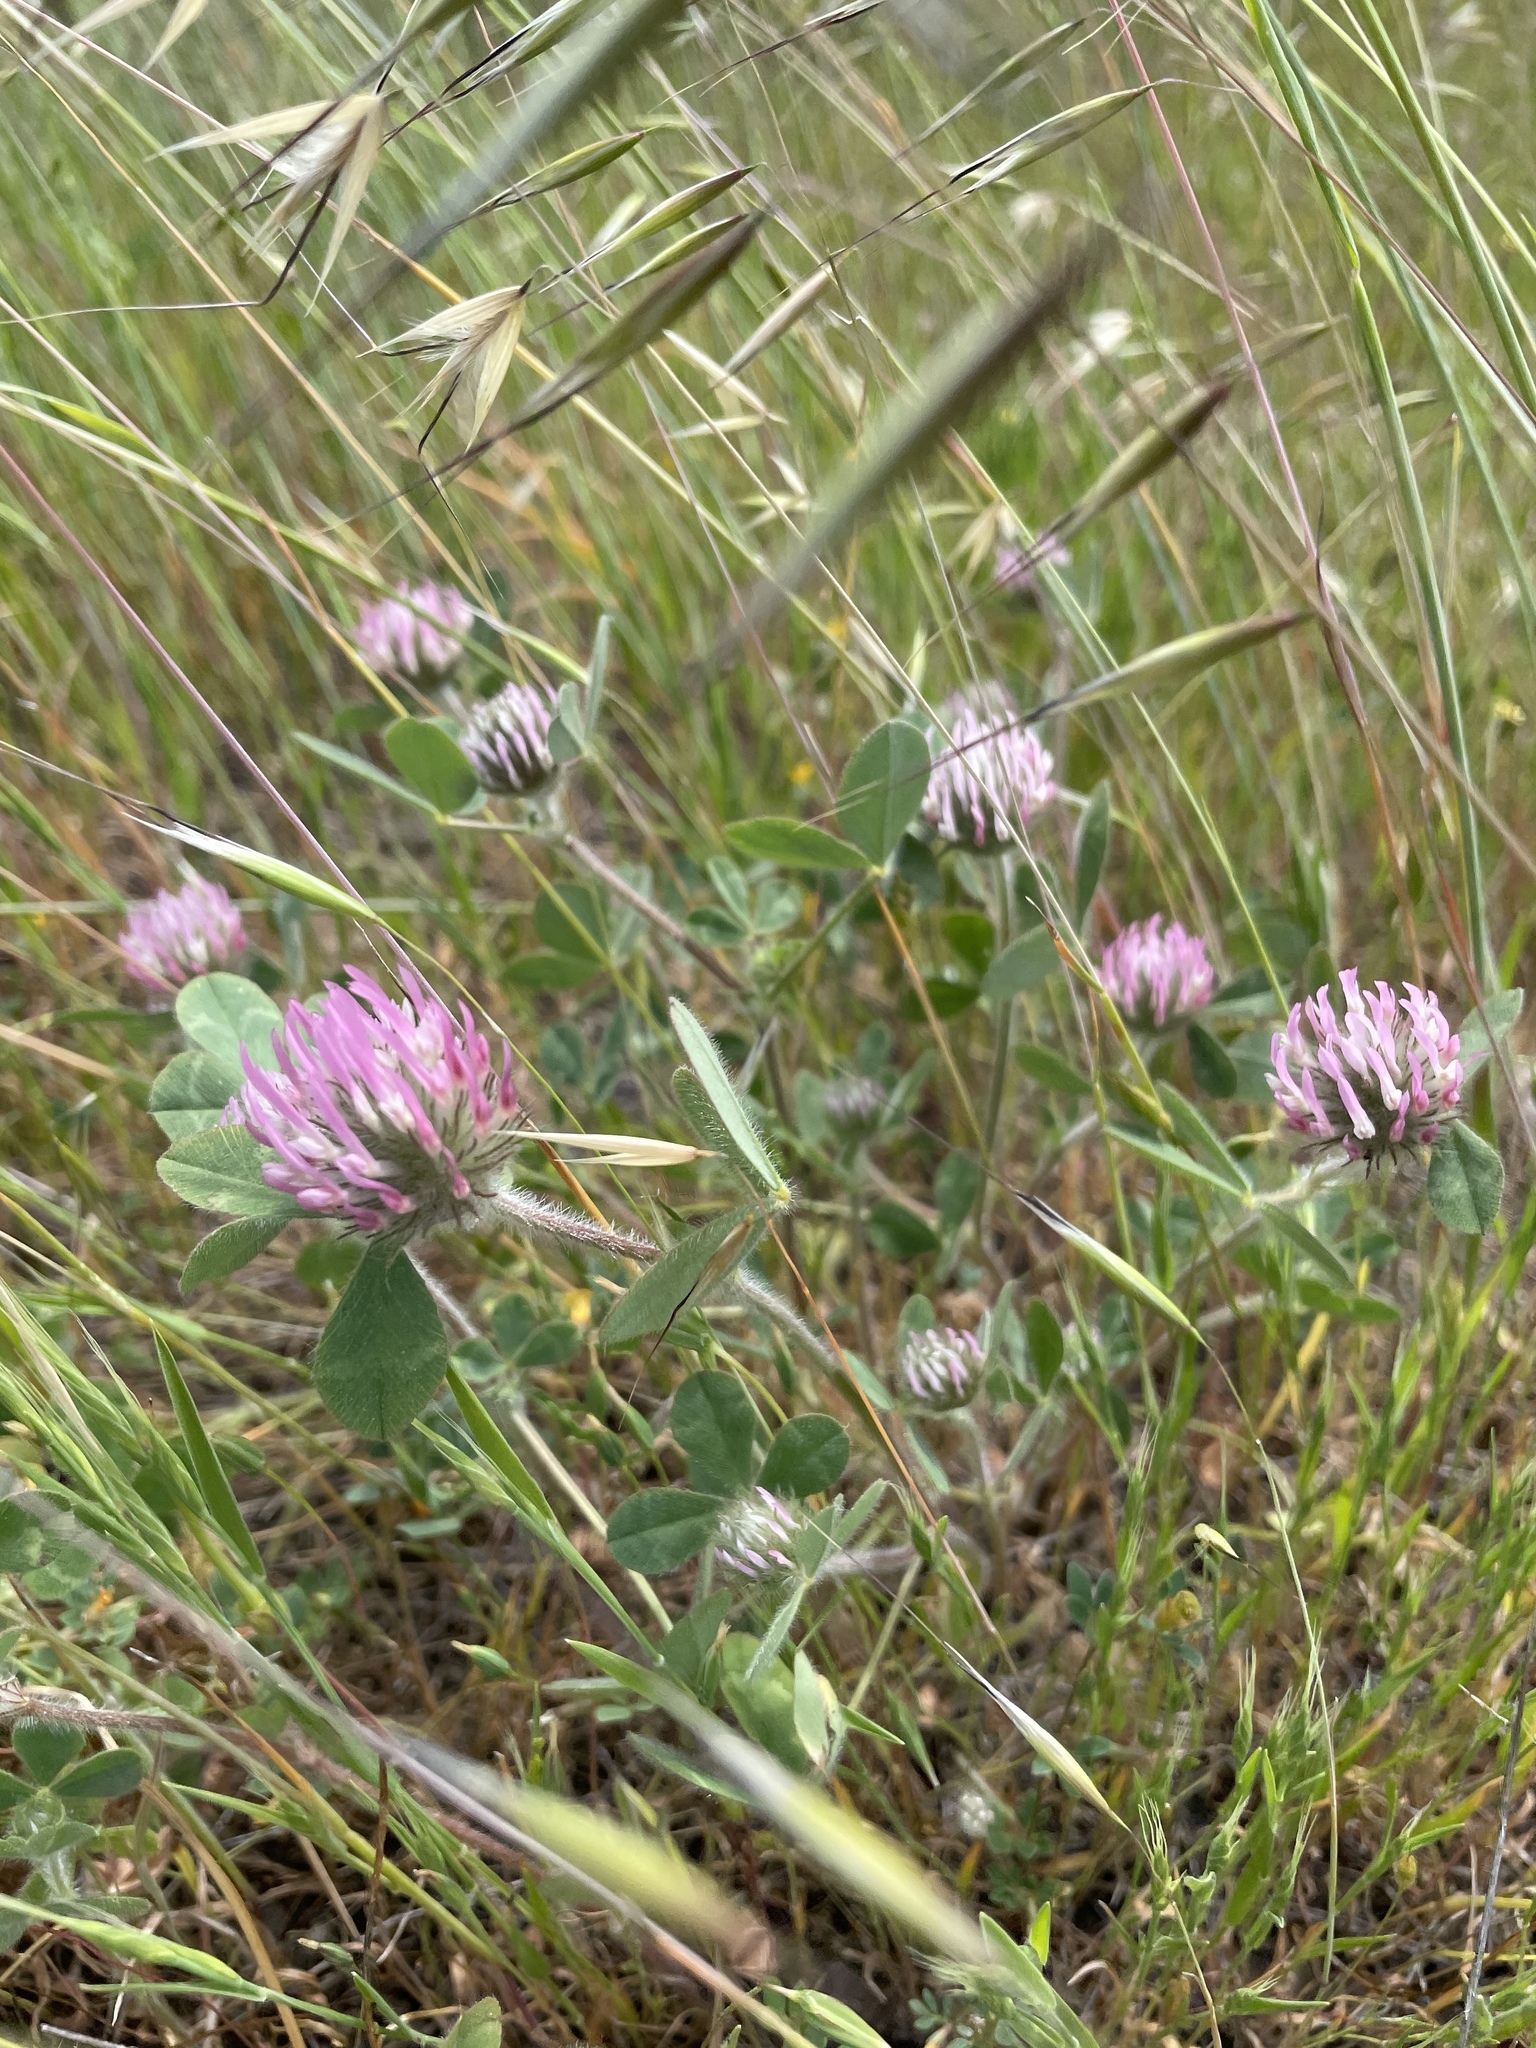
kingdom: Plantae
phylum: Tracheophyta
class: Magnoliopsida
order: Fabales
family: Fabaceae
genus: Trifolium
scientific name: Trifolium hirtum
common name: Rose clover
